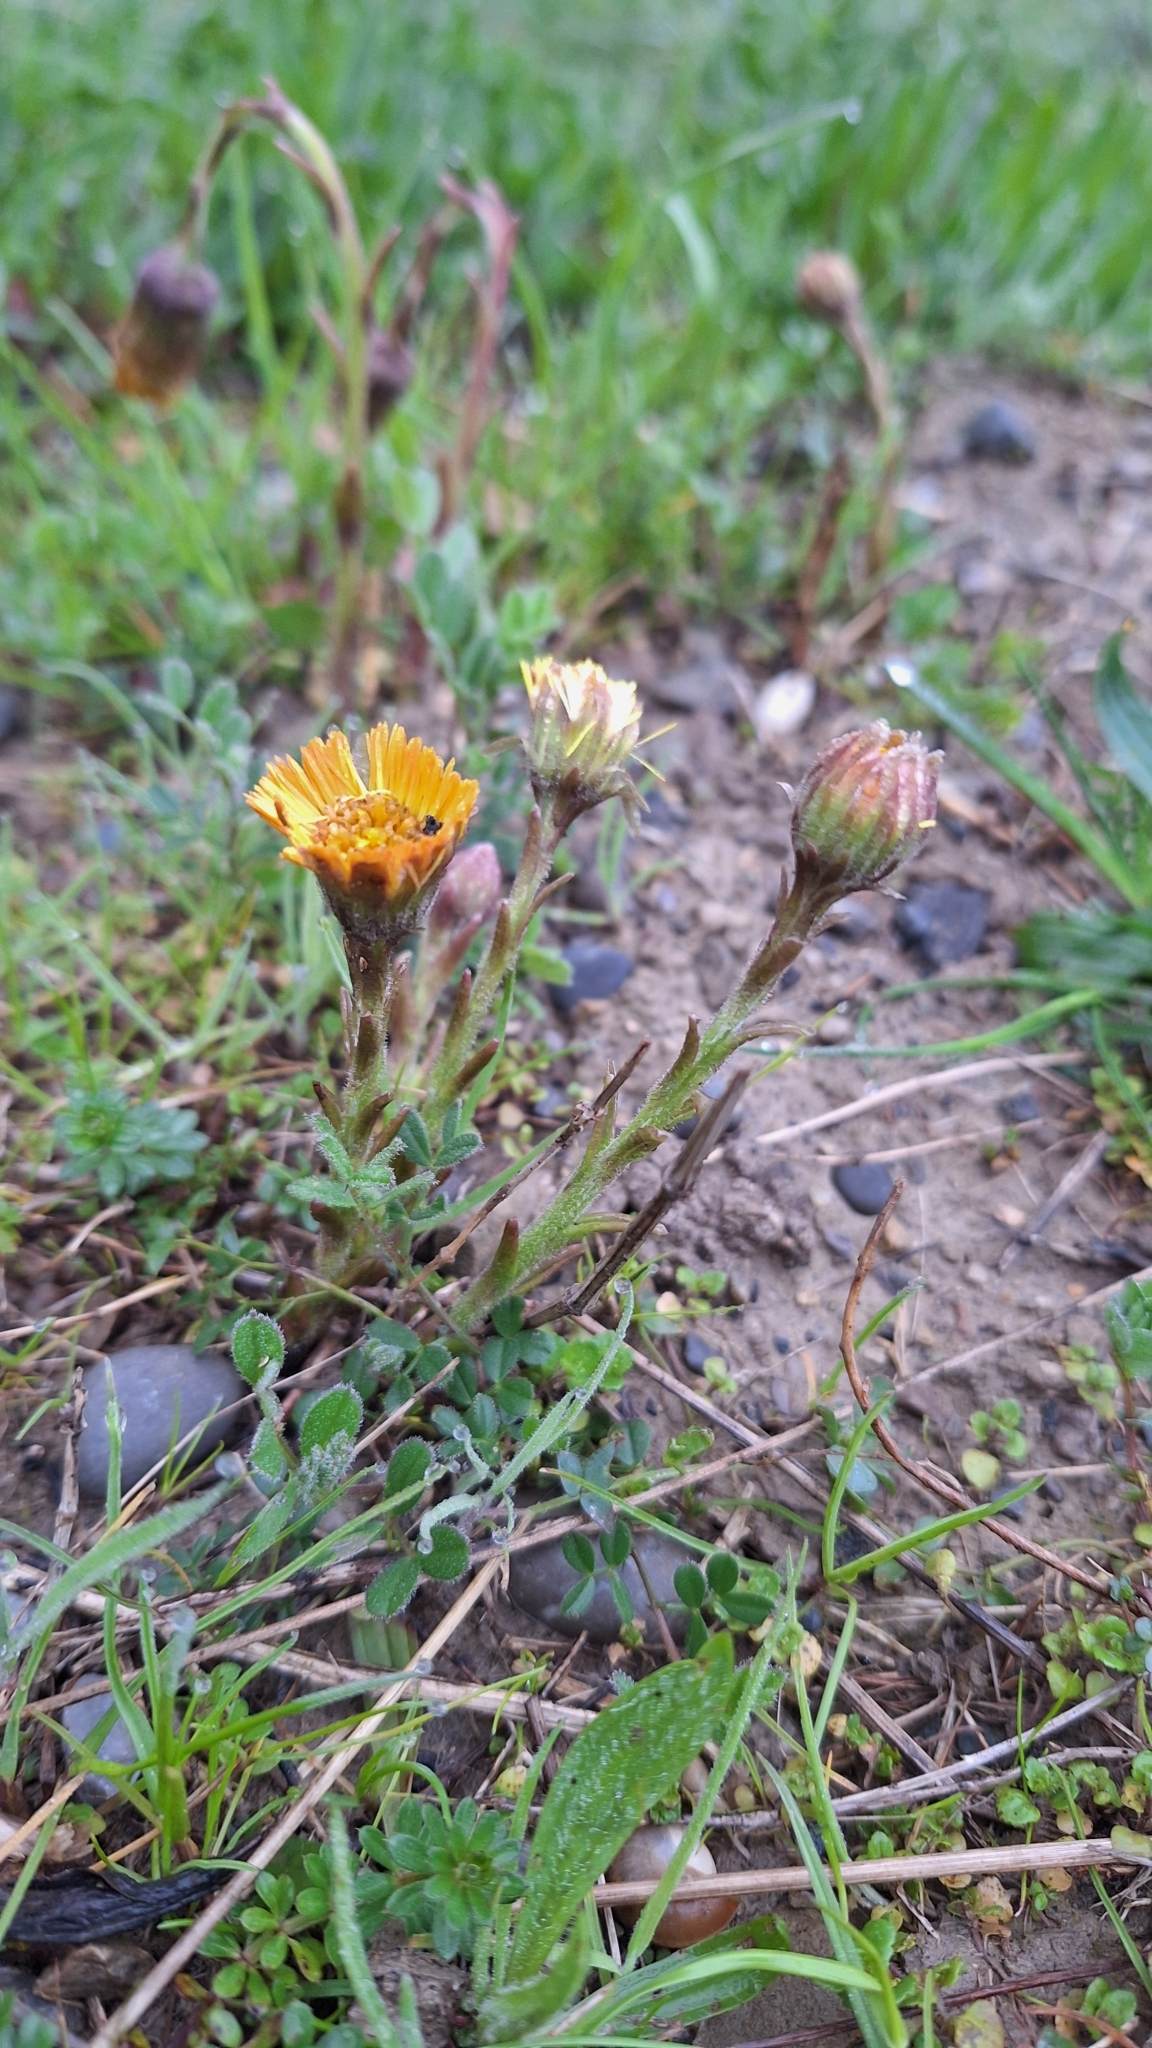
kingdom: Plantae
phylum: Tracheophyta
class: Magnoliopsida
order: Asterales
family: Asteraceae
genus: Tussilago
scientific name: Tussilago farfara
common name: Coltsfoot
